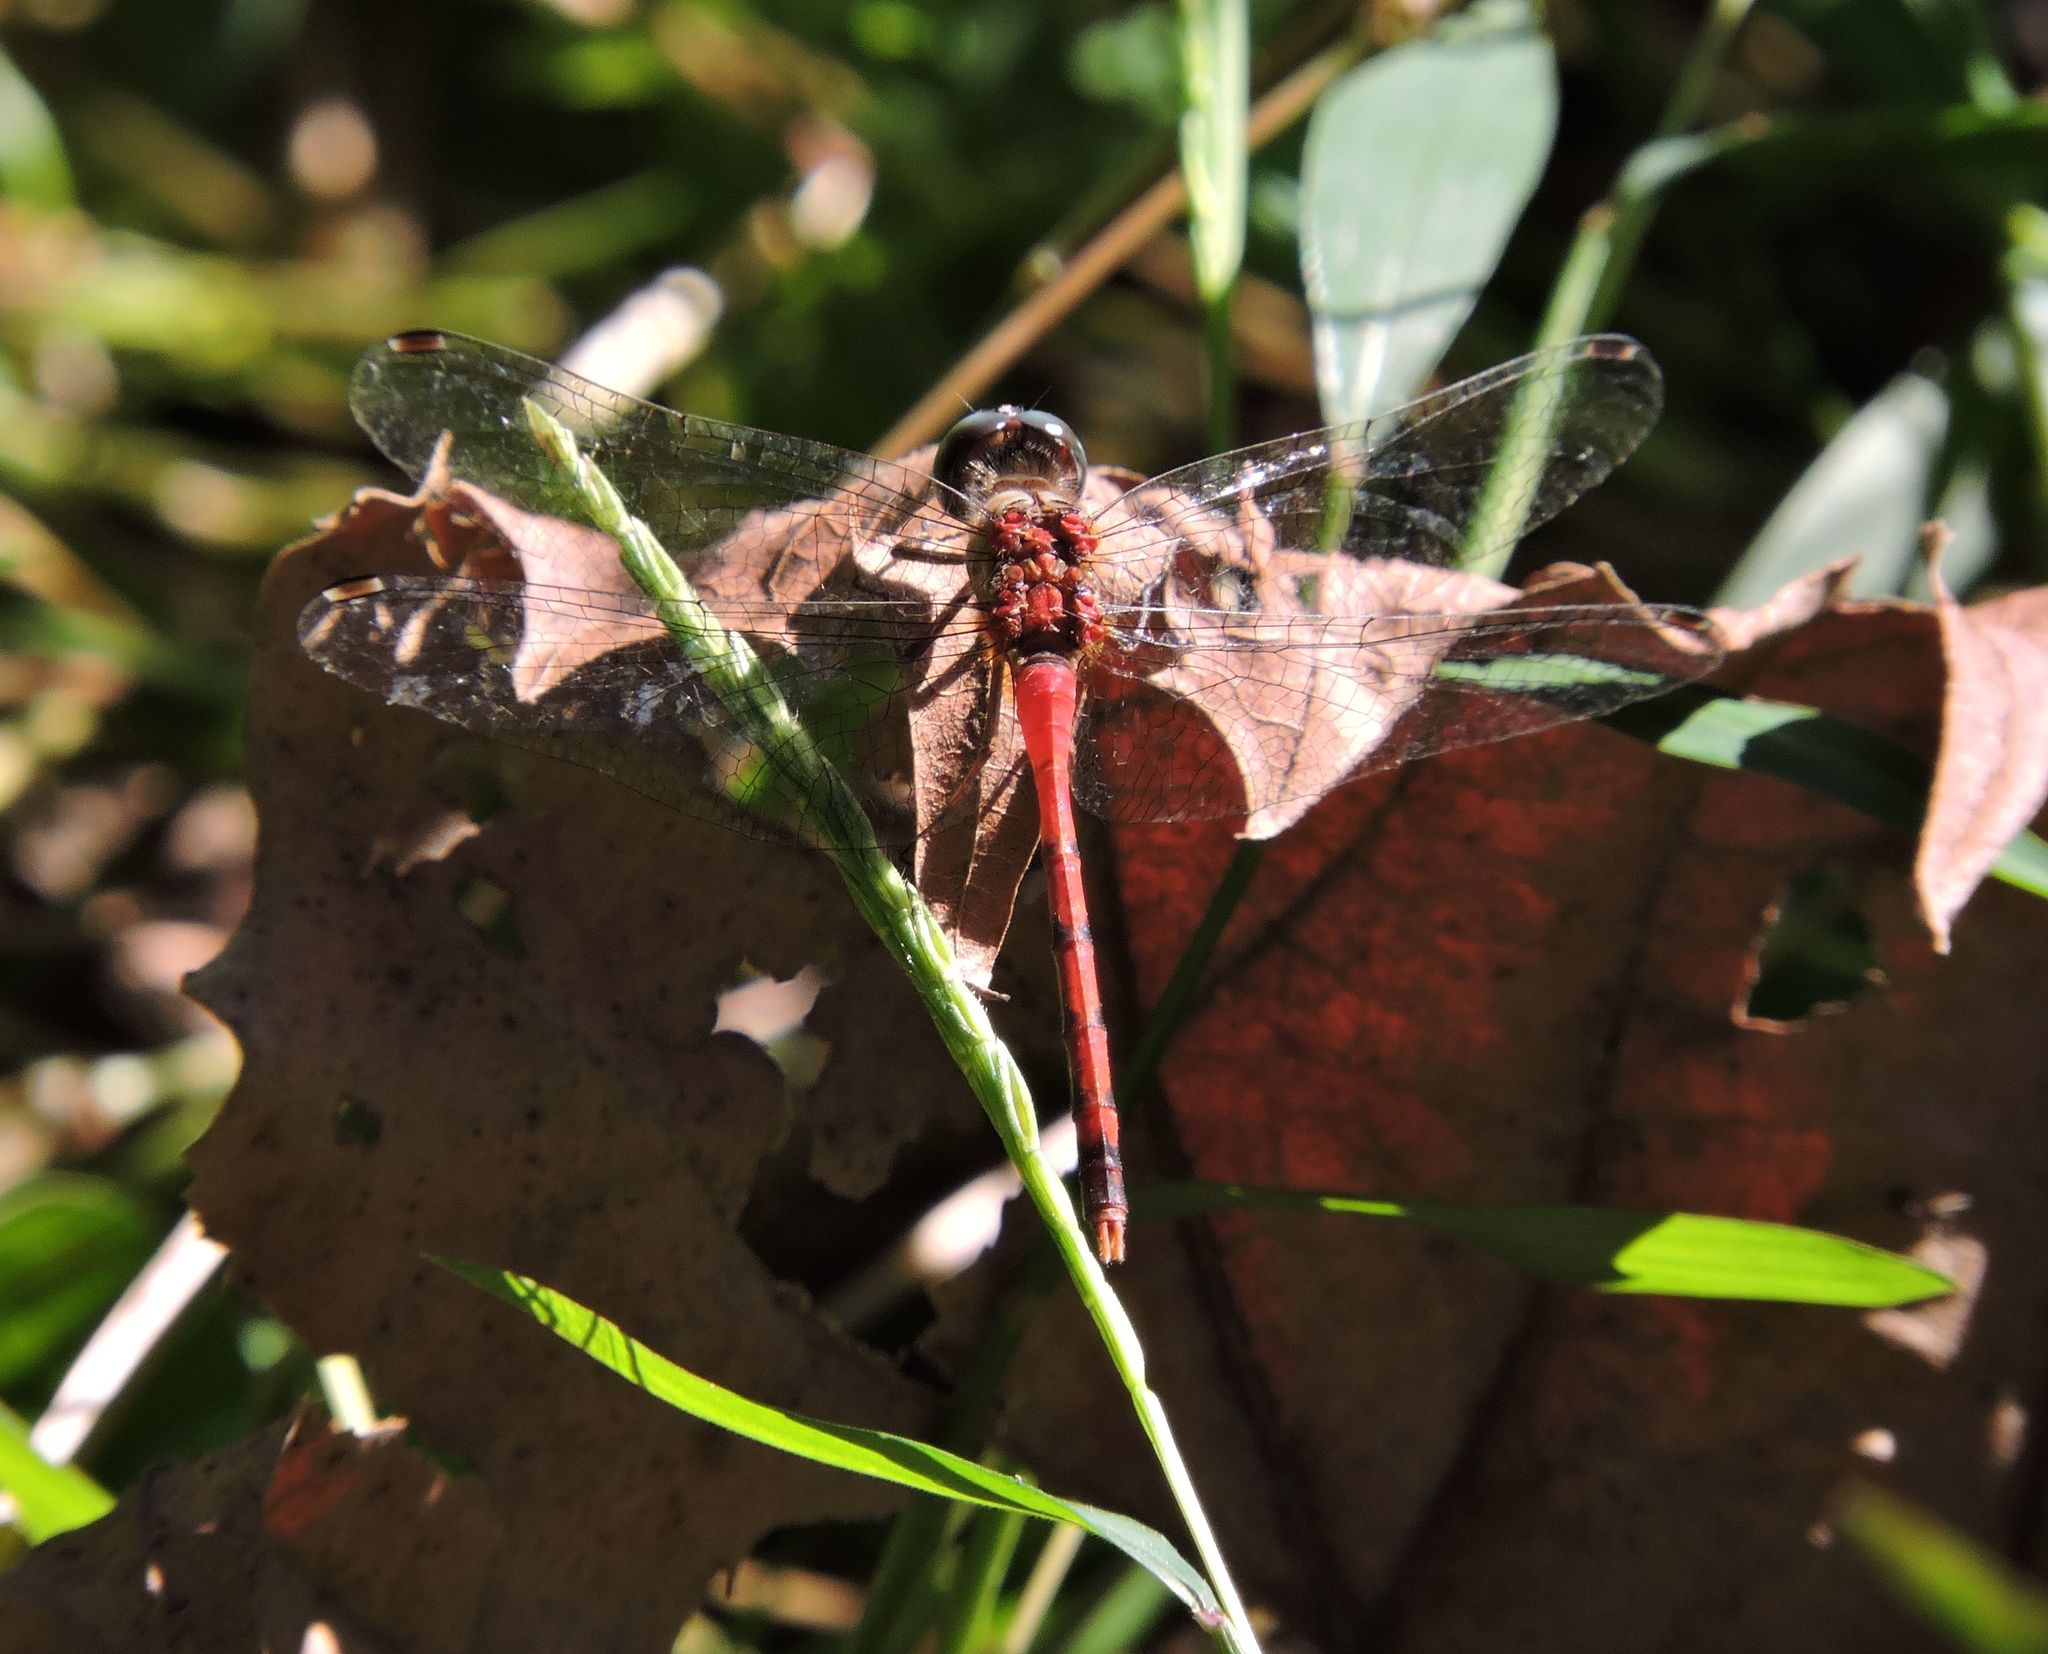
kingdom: Animalia
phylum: Arthropoda
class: Insecta
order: Odonata
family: Libellulidae
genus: Sympetrum
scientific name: Sympetrum ambiguum
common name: Blue-faced meadowhawk
